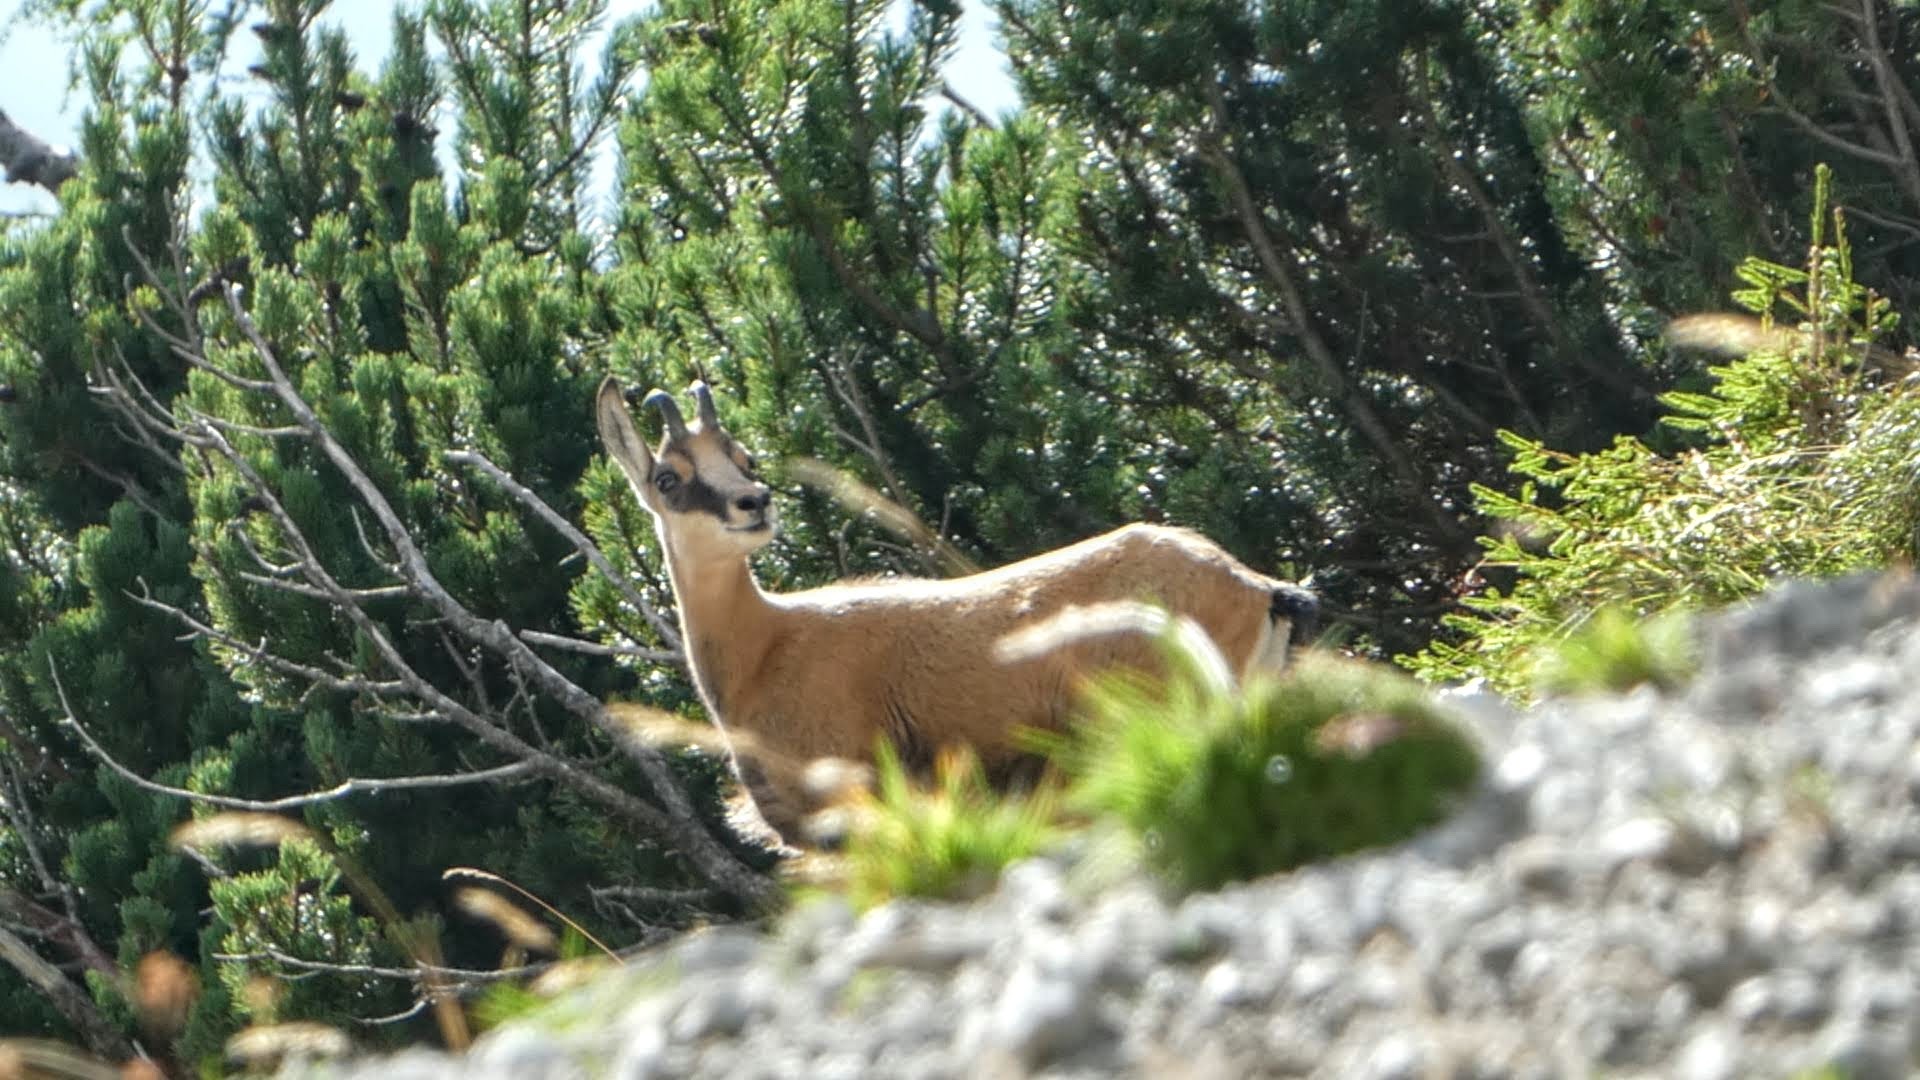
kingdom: Animalia
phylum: Chordata
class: Mammalia
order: Artiodactyla
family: Bovidae
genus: Rupicapra
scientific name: Rupicapra rupicapra
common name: Chamois
